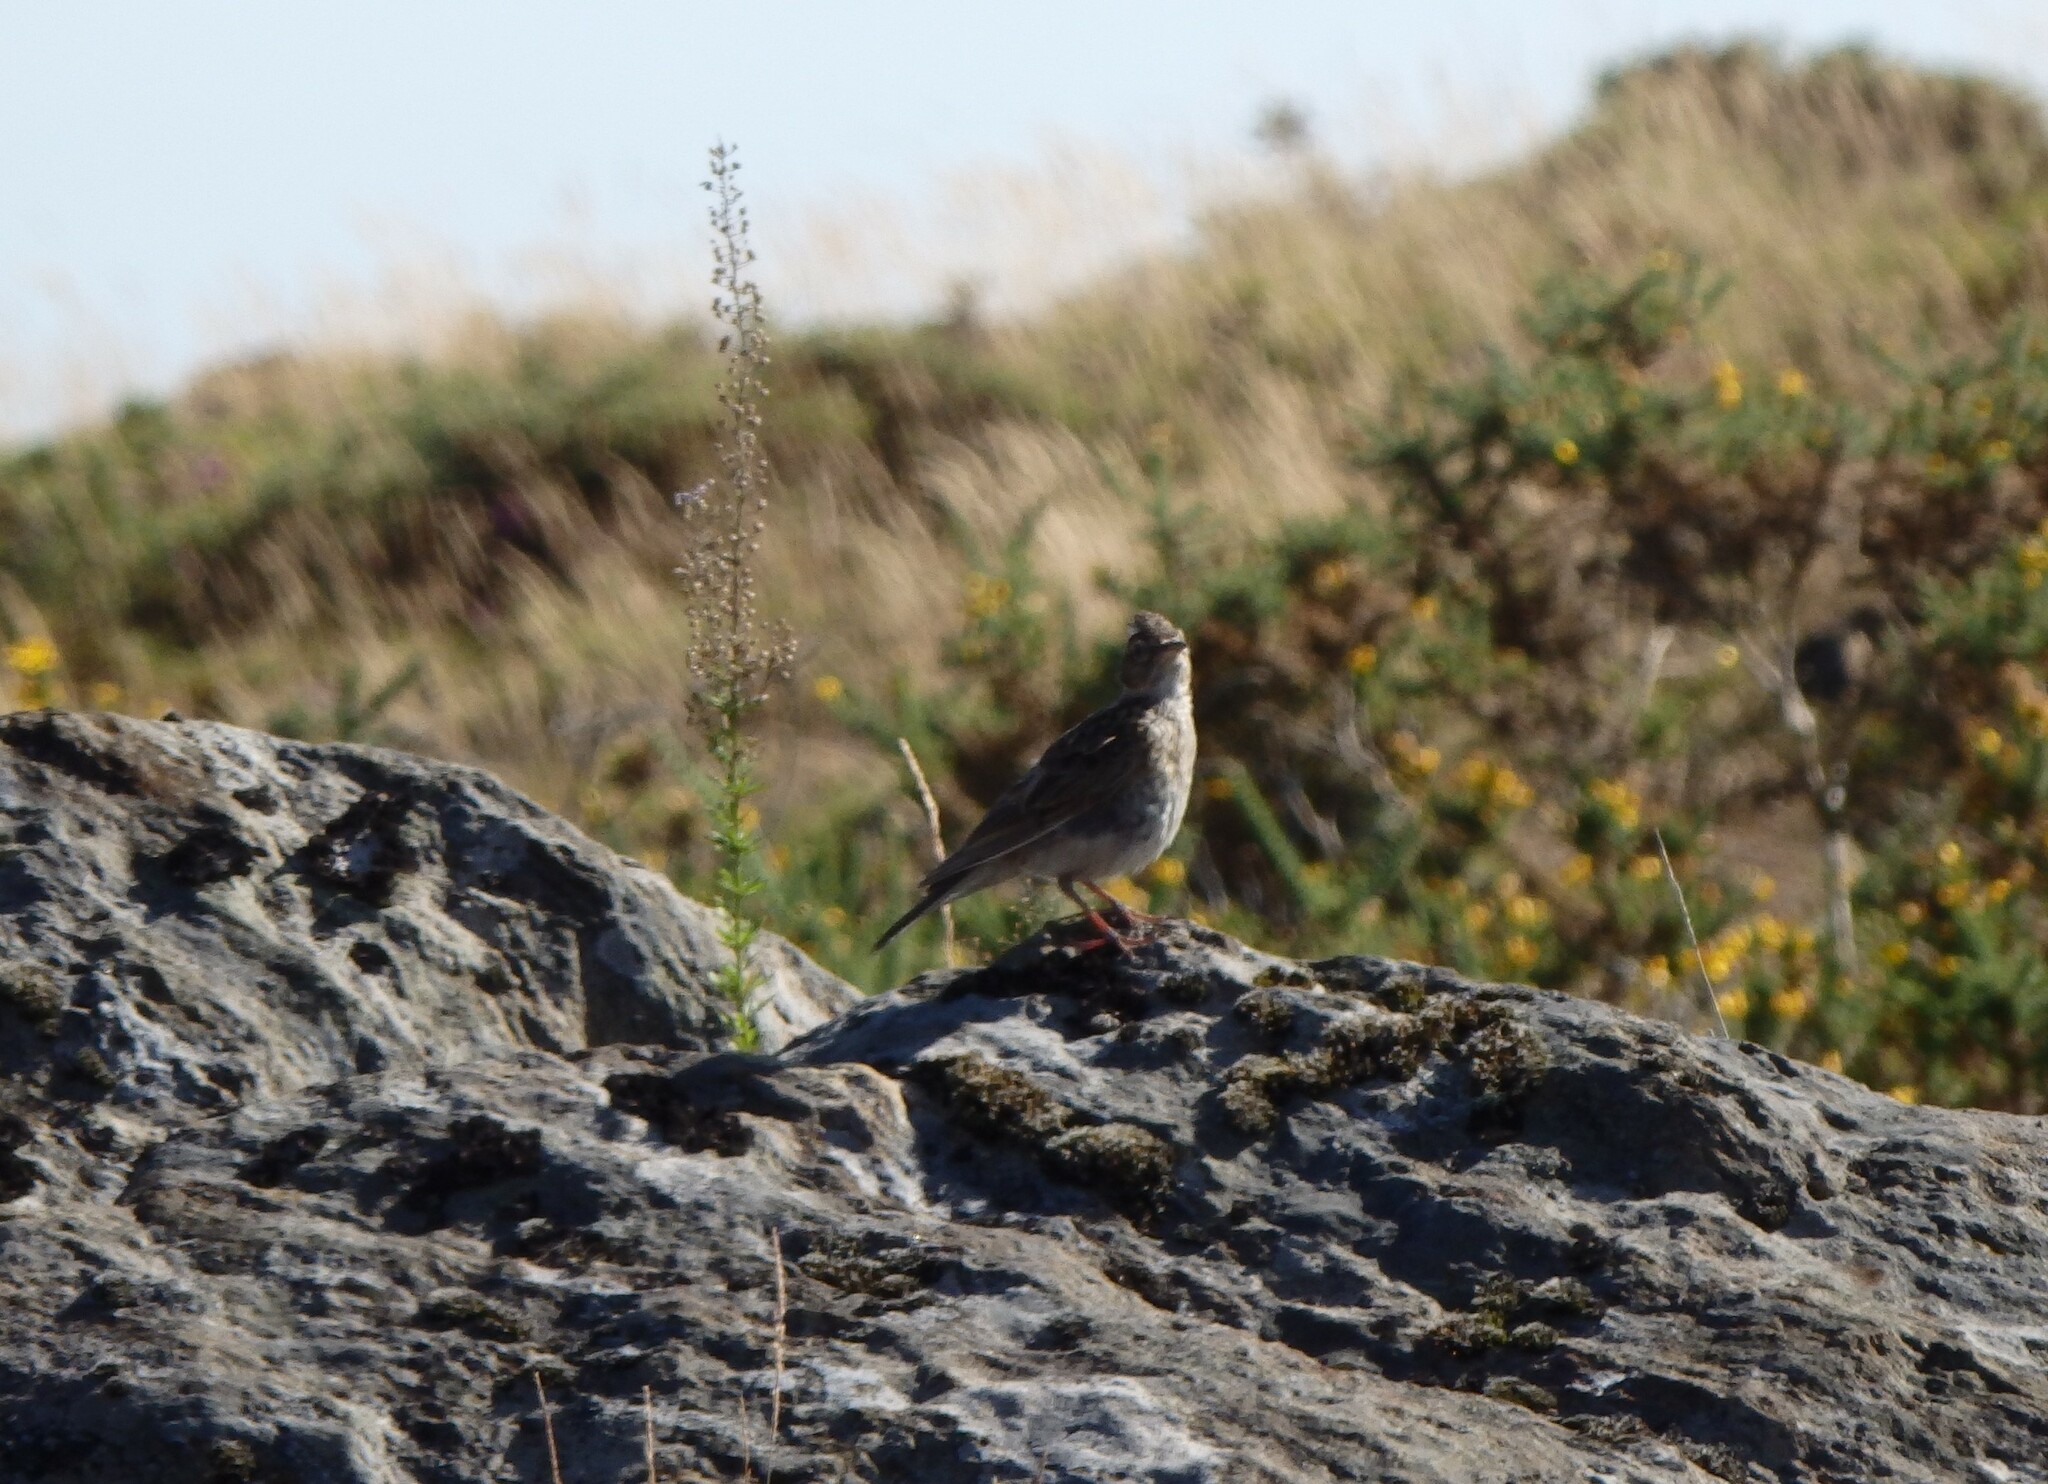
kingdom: Animalia
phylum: Chordata
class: Aves
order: Passeriformes
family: Alaudidae
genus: Alauda
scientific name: Alauda arvensis
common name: Eurasian skylark
